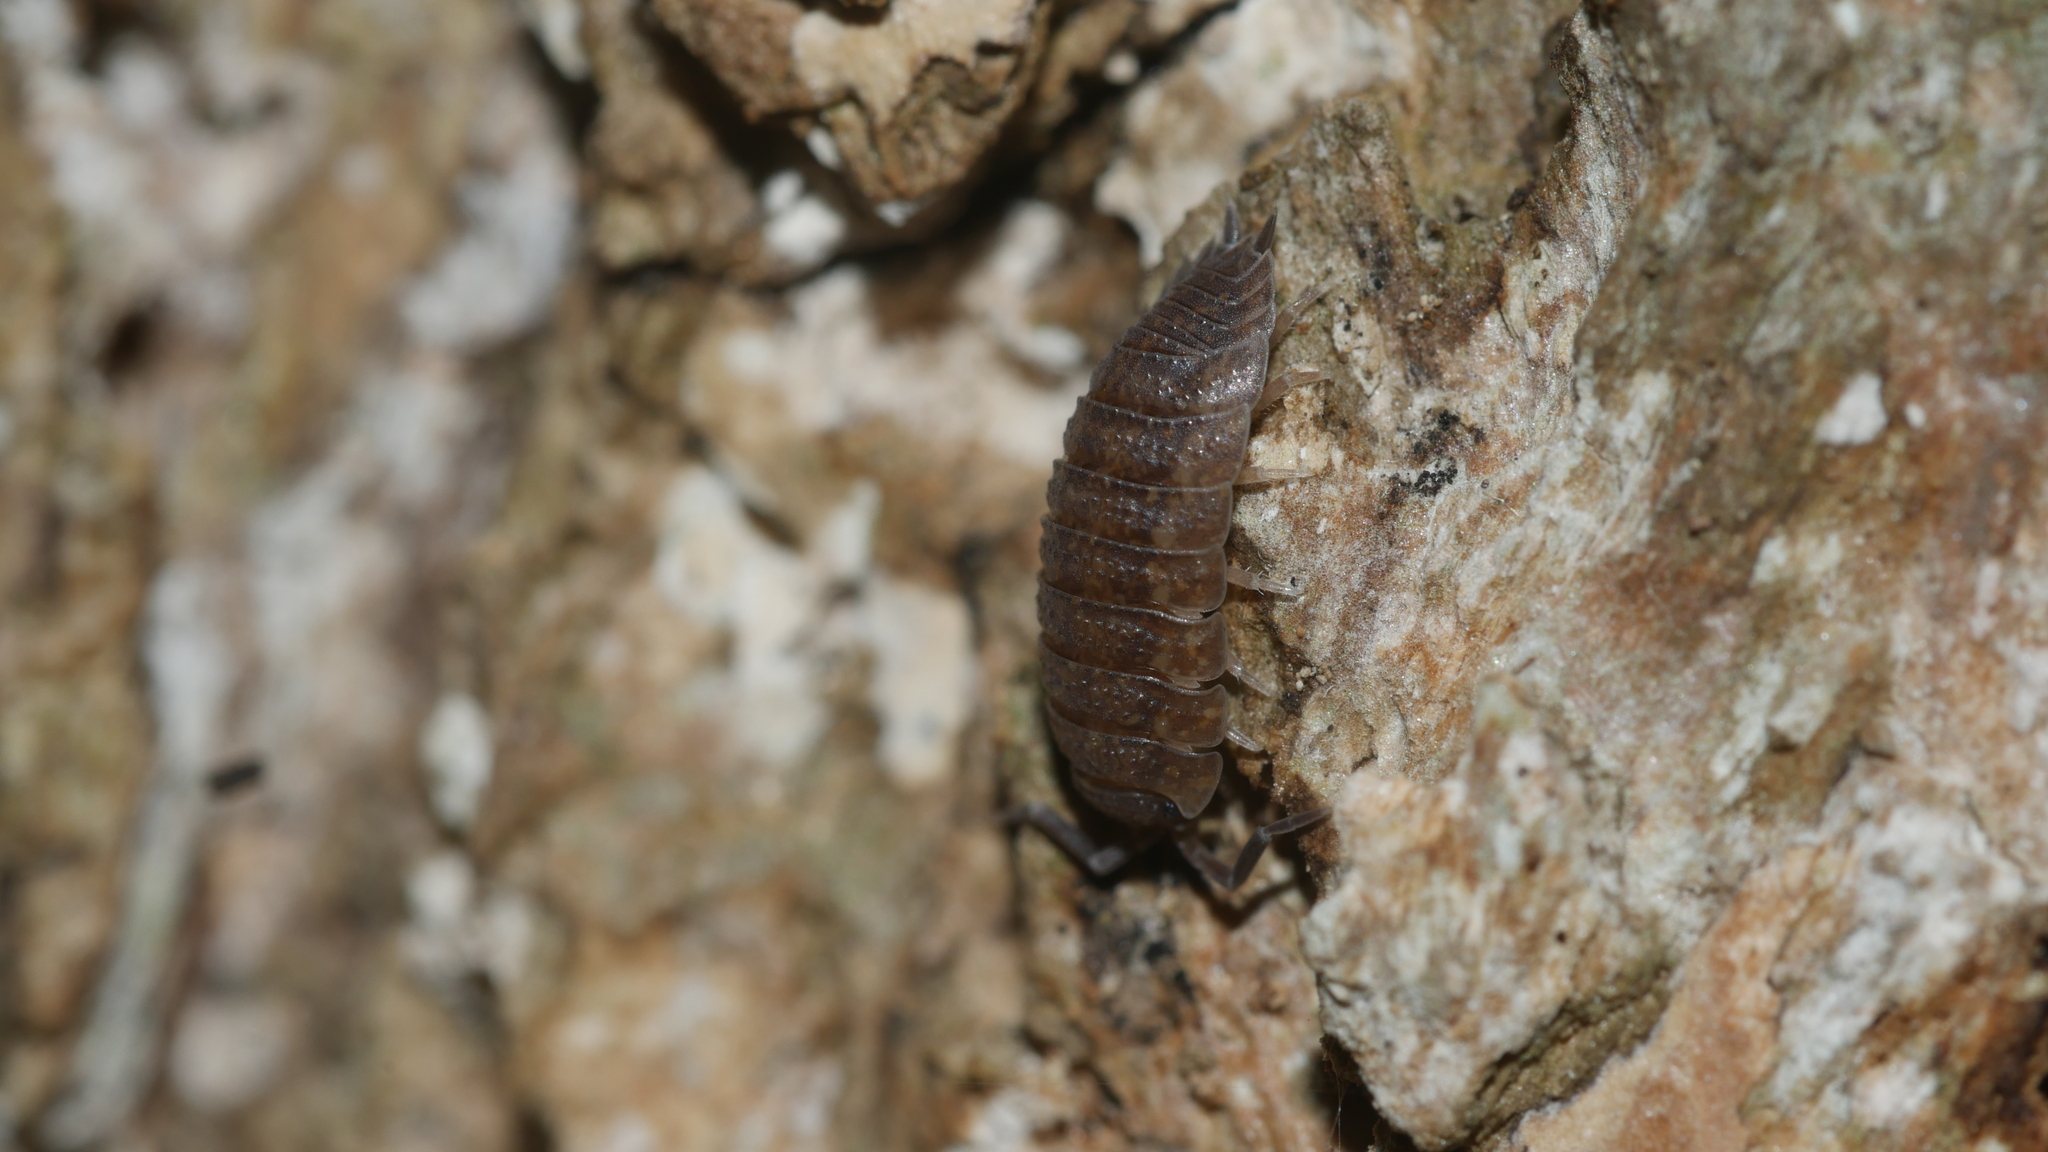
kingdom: Animalia
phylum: Arthropoda
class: Malacostraca
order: Isopoda
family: Porcellionidae
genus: Porcellio
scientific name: Porcellio scaber
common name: Common rough woodlouse
